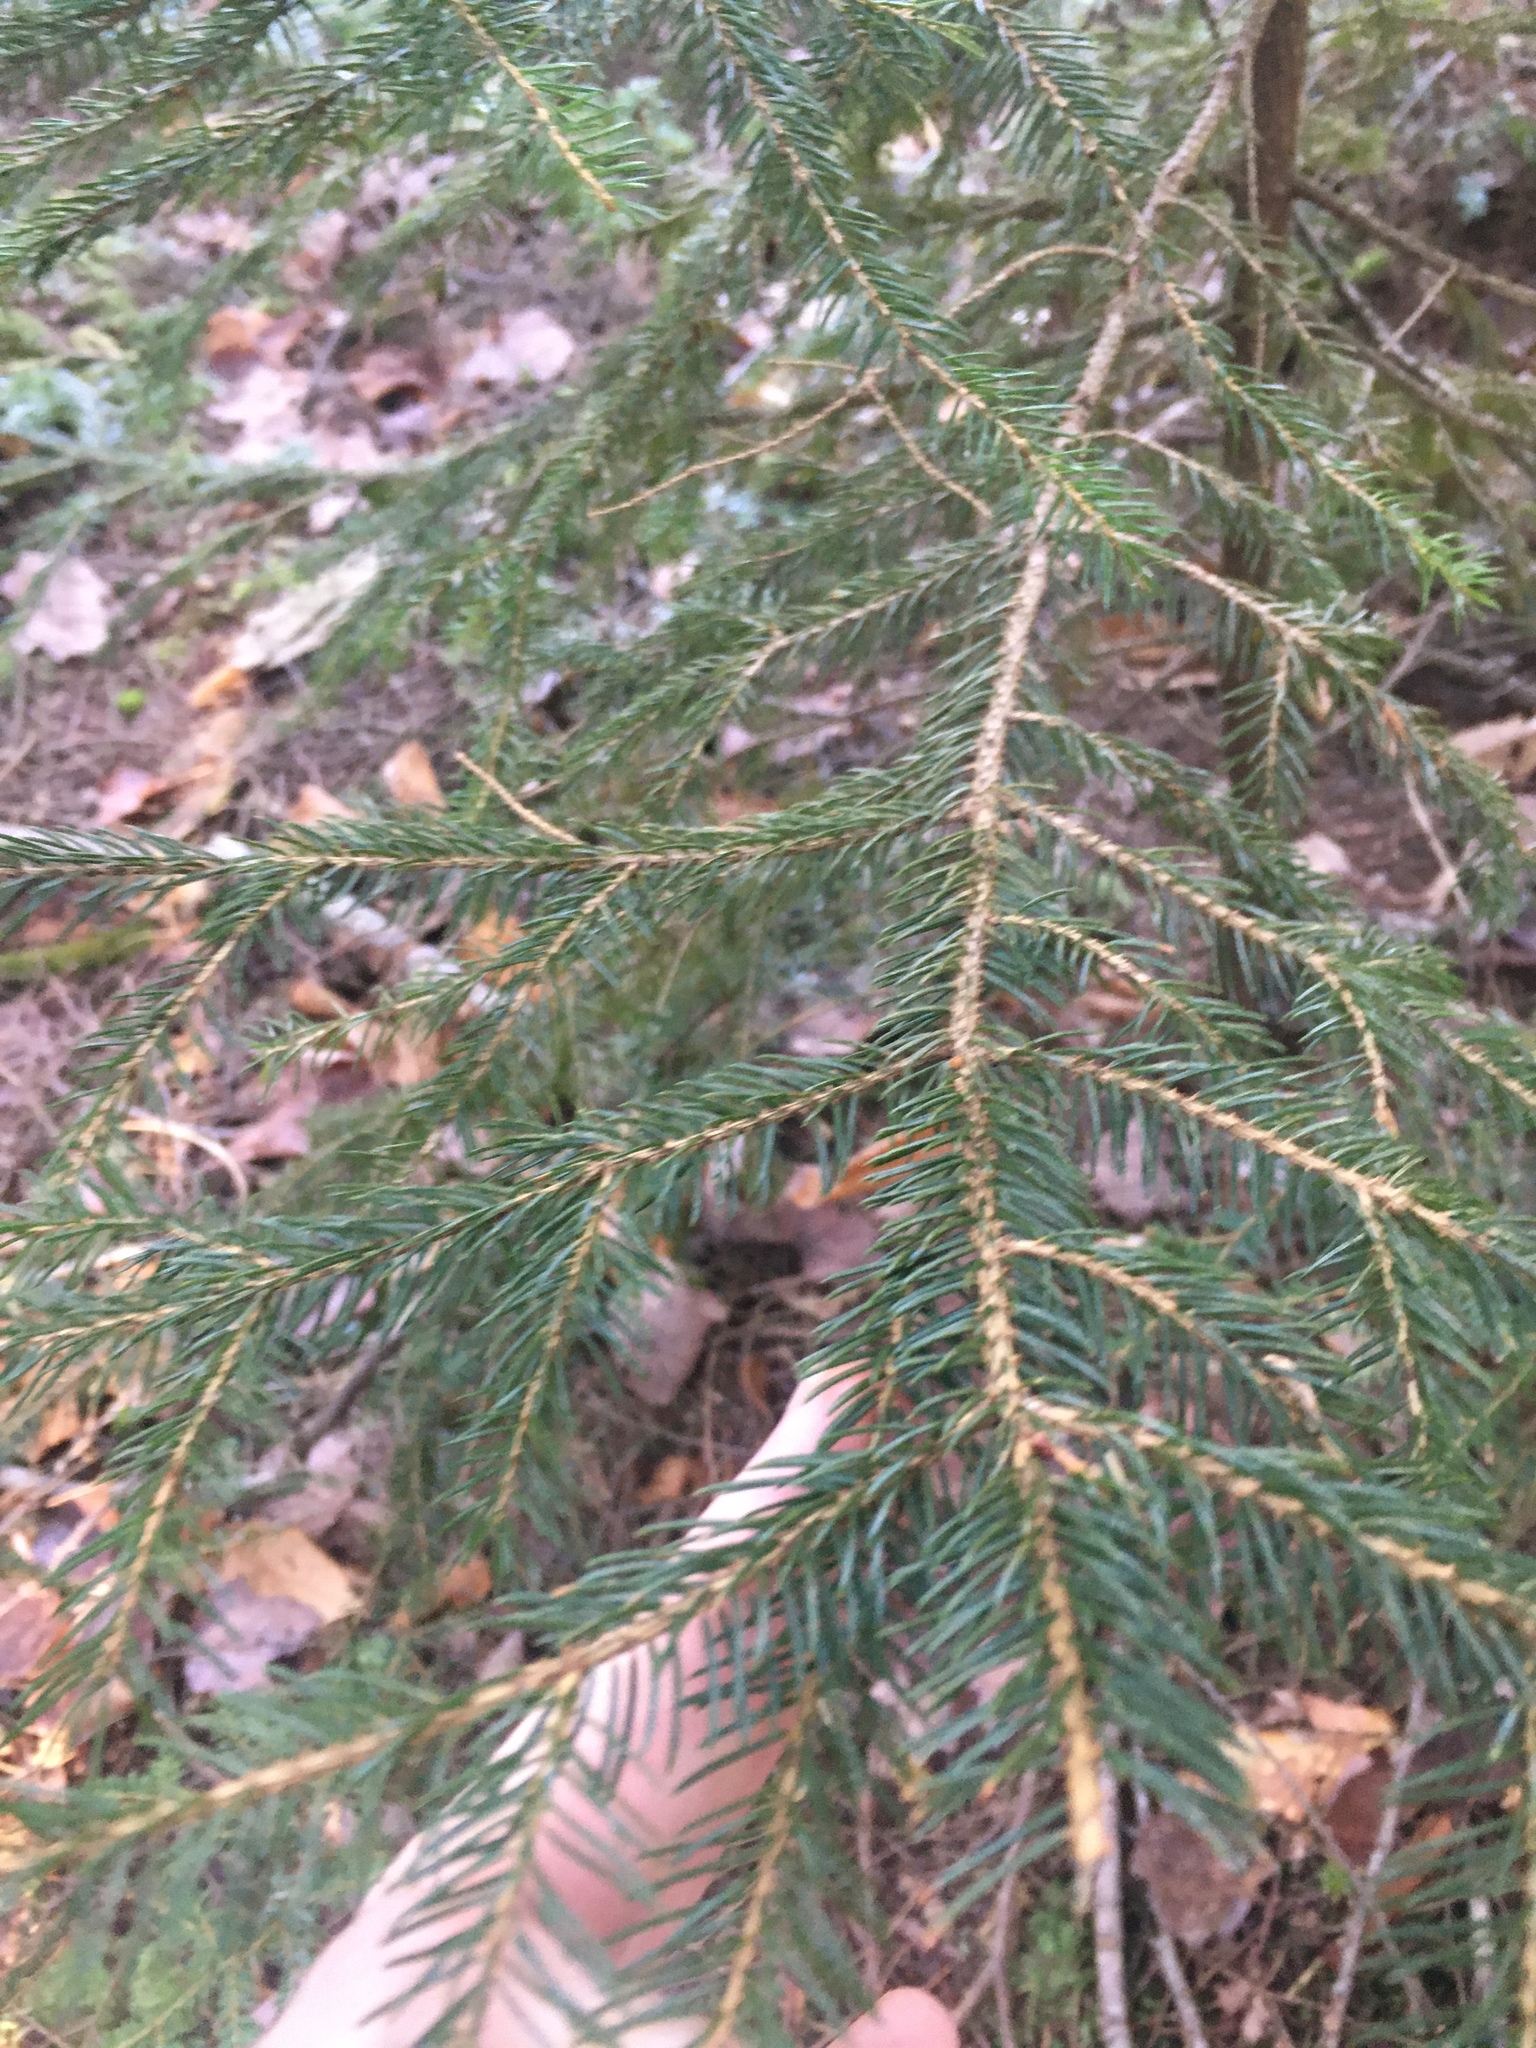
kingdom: Plantae
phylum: Tracheophyta
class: Pinopsida
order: Pinales
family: Pinaceae
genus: Picea
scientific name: Picea rubens
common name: Red spruce
